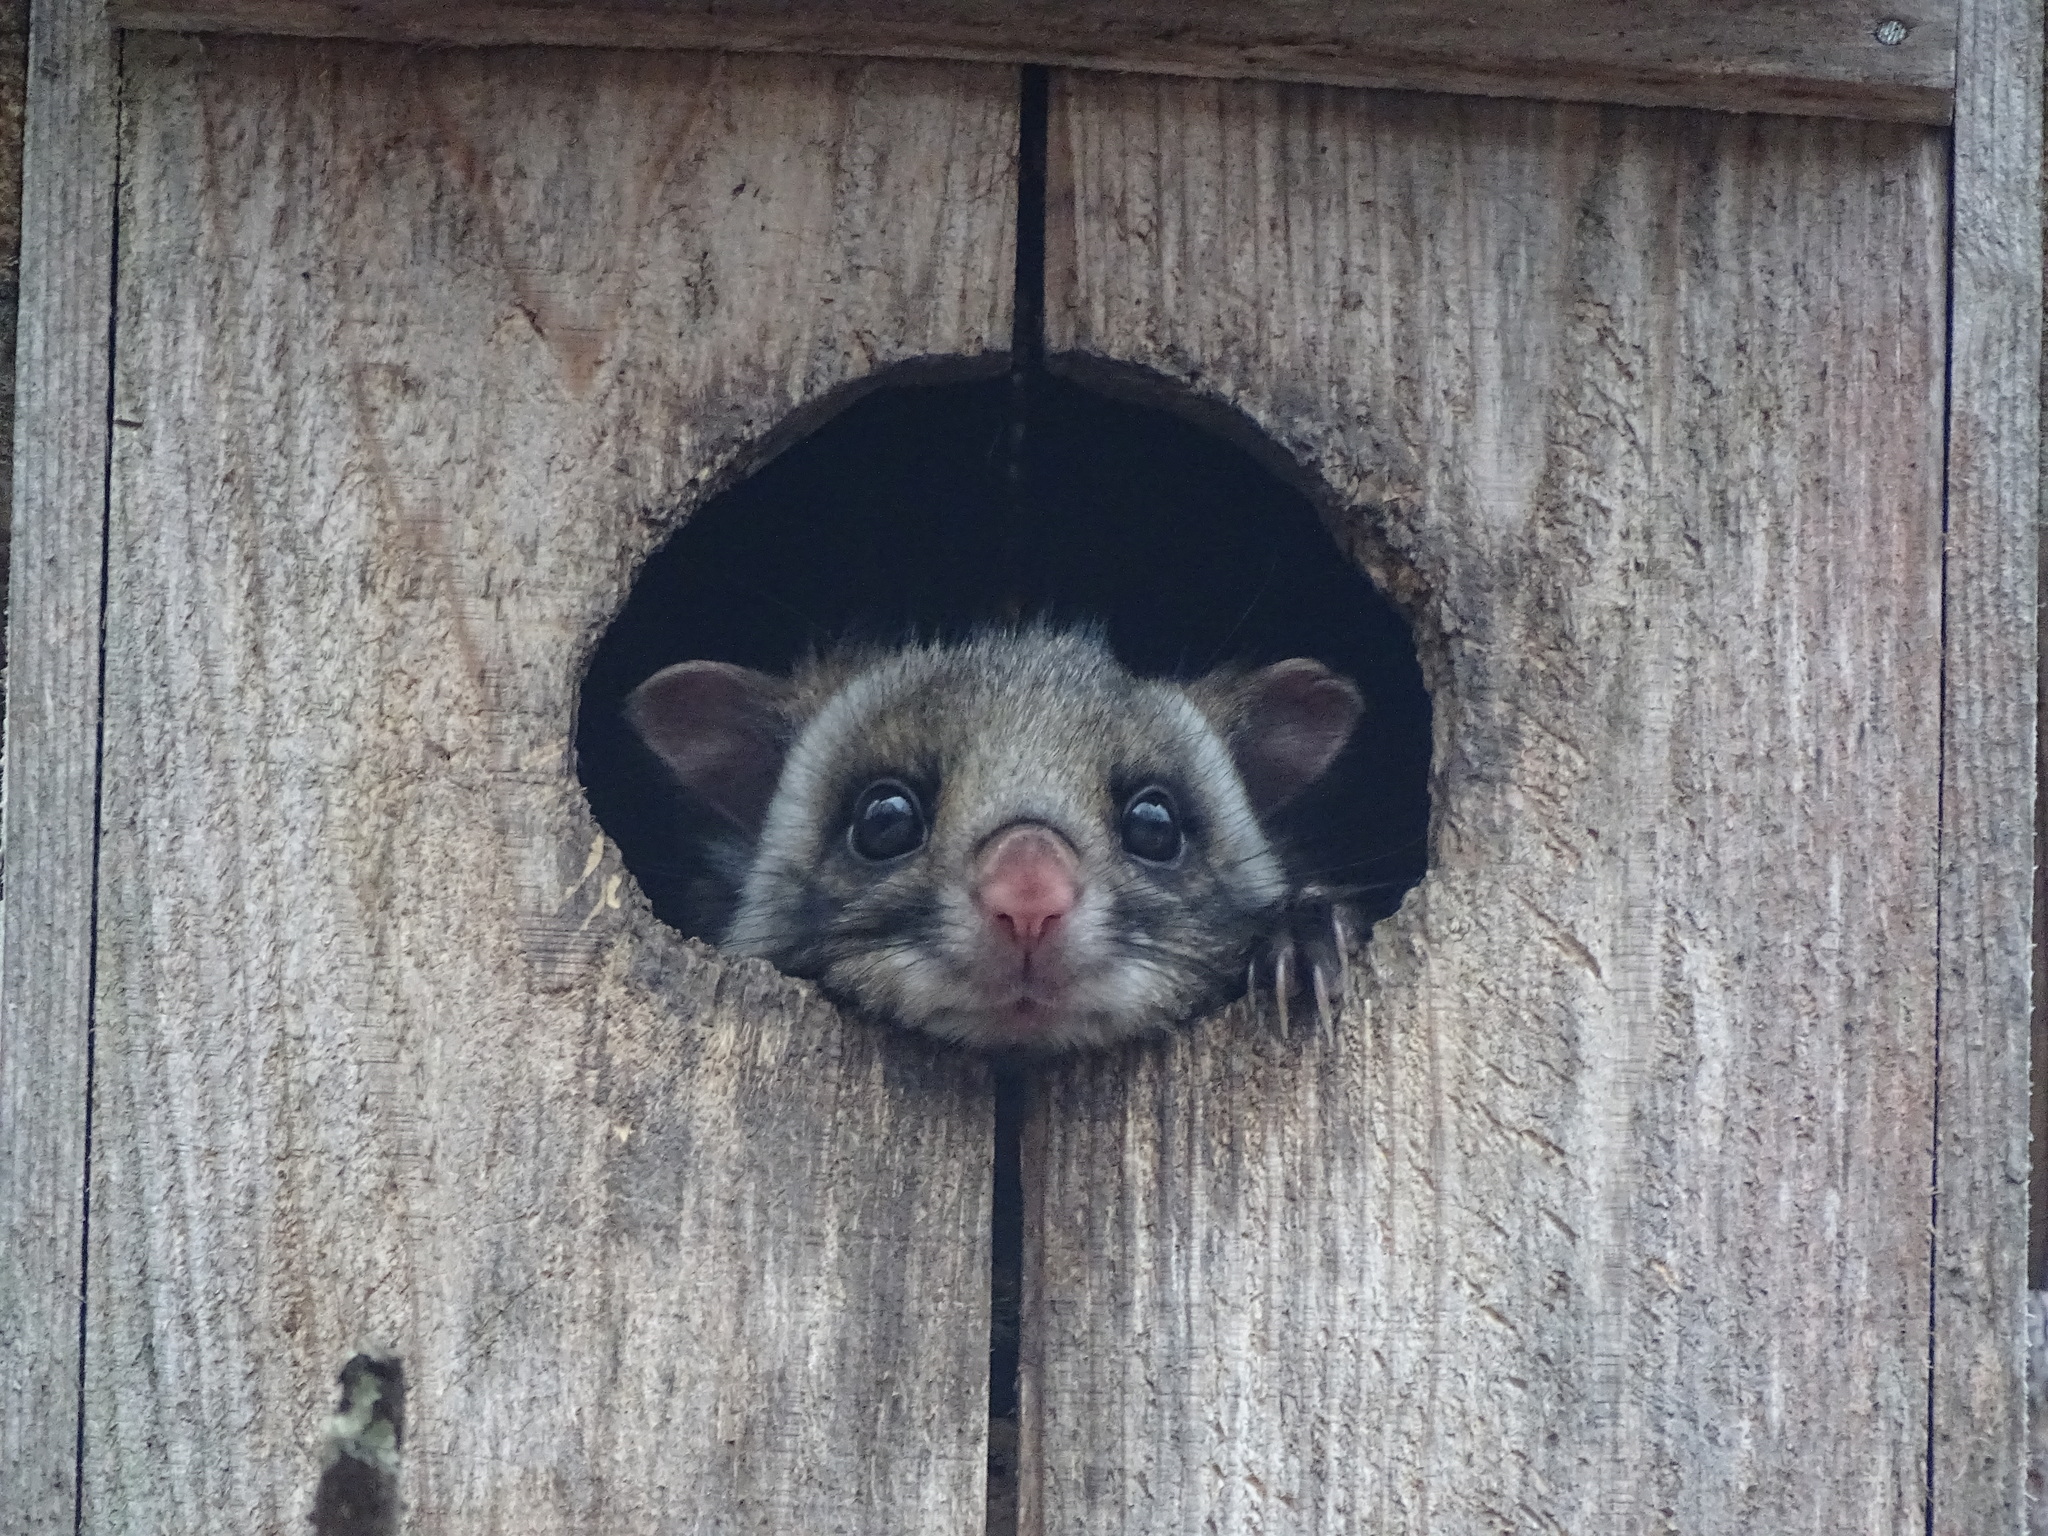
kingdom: Animalia
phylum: Chordata
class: Mammalia
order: Rodentia
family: Sciuridae
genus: Petaurista
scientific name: Petaurista leucogenys
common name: Japanese giant flying squirrel
